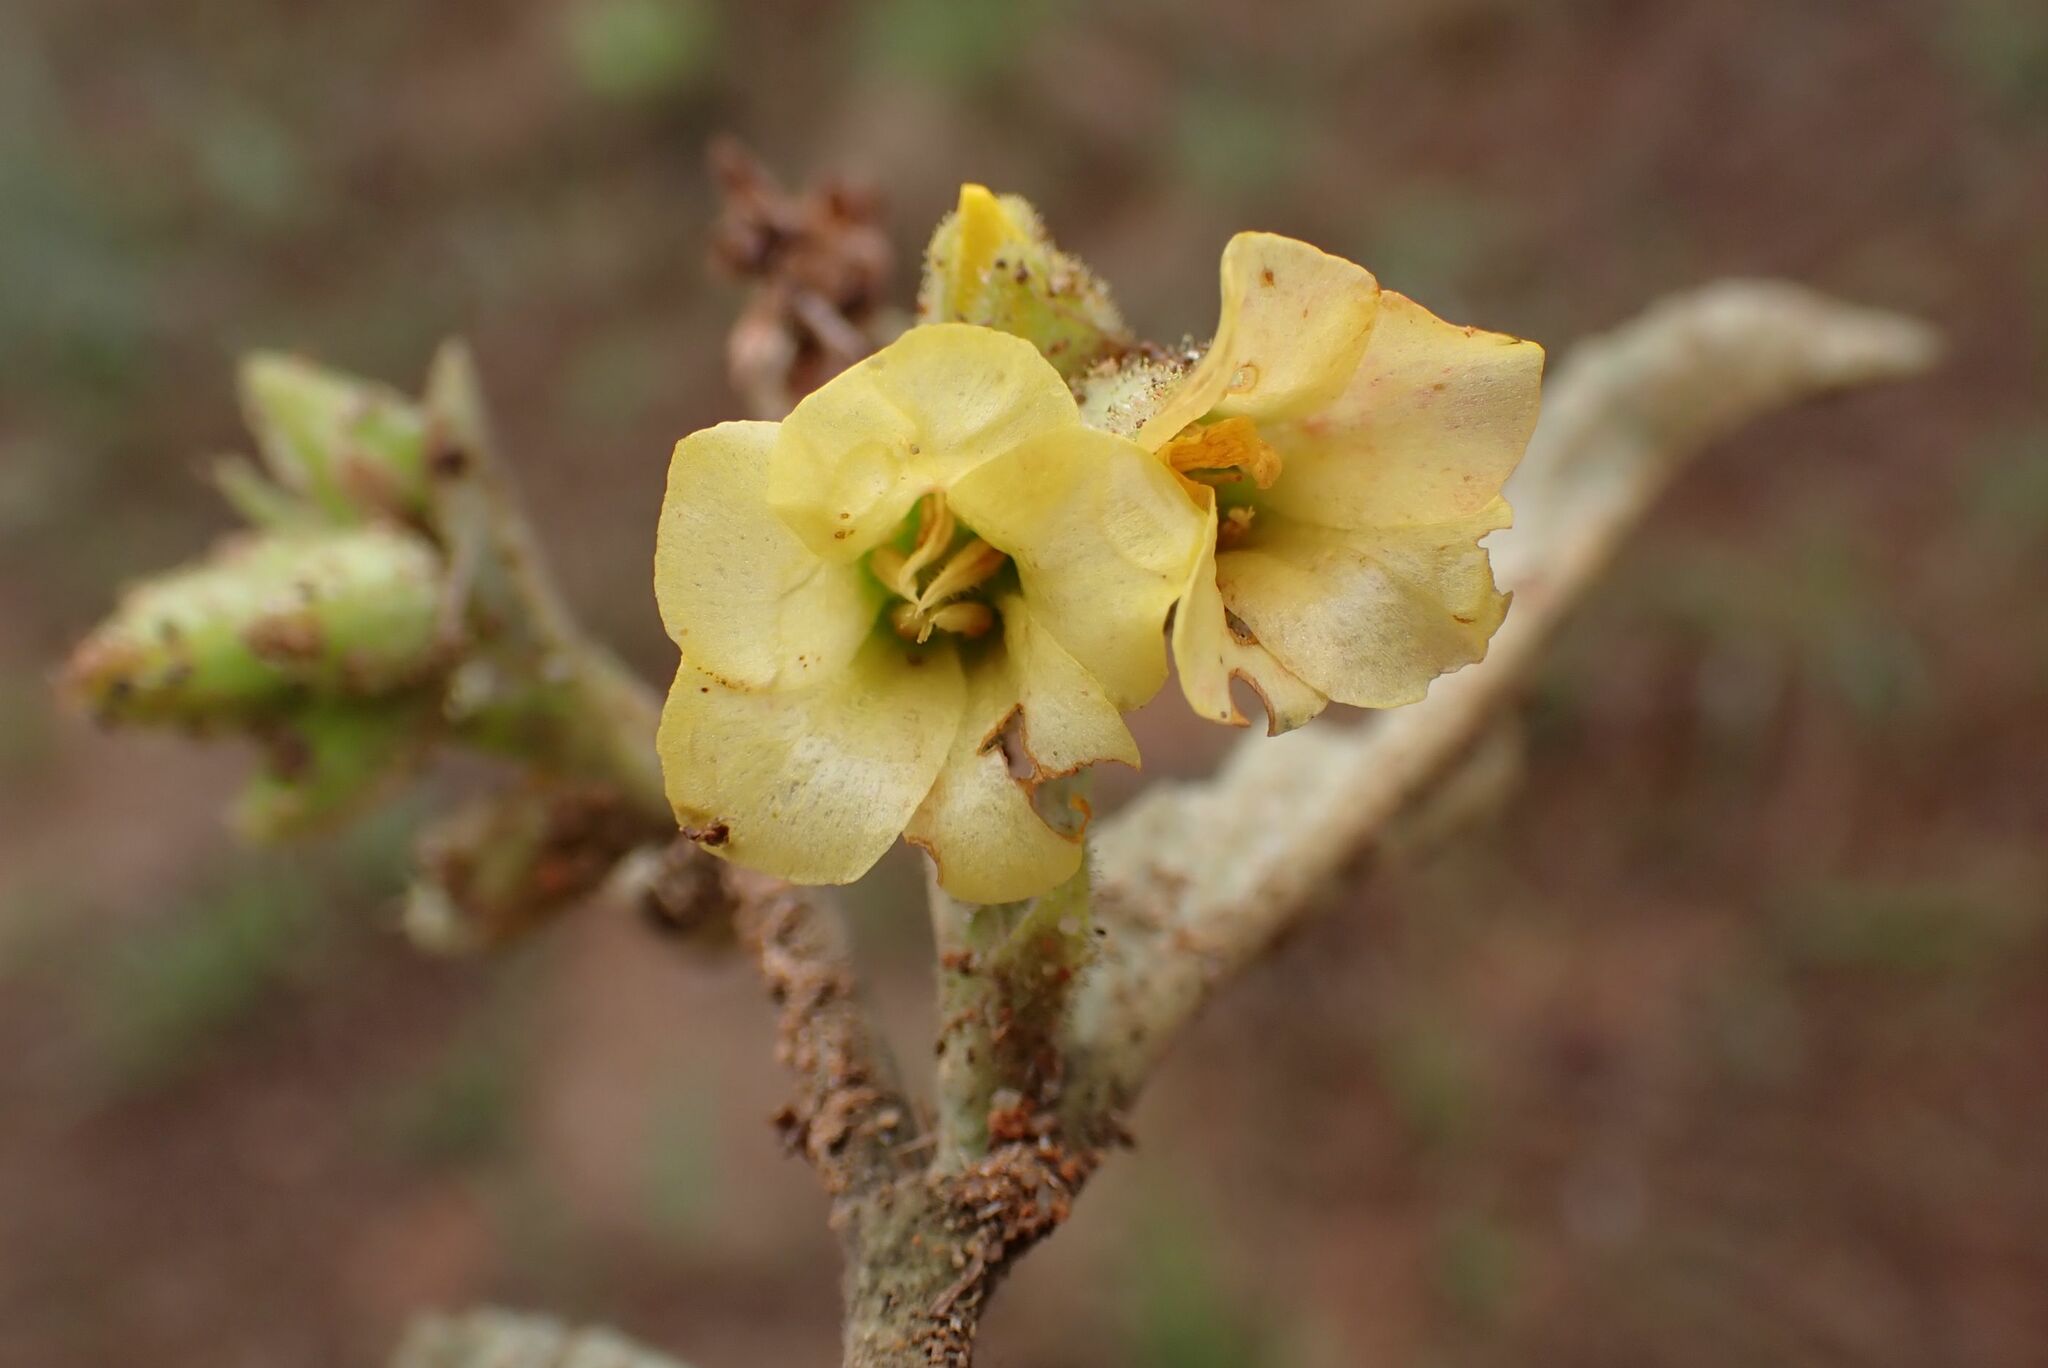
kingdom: Plantae
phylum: Tracheophyta
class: Magnoliopsida
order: Malvales
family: Malvaceae
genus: Hermannia
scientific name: Hermannia lancifolia
